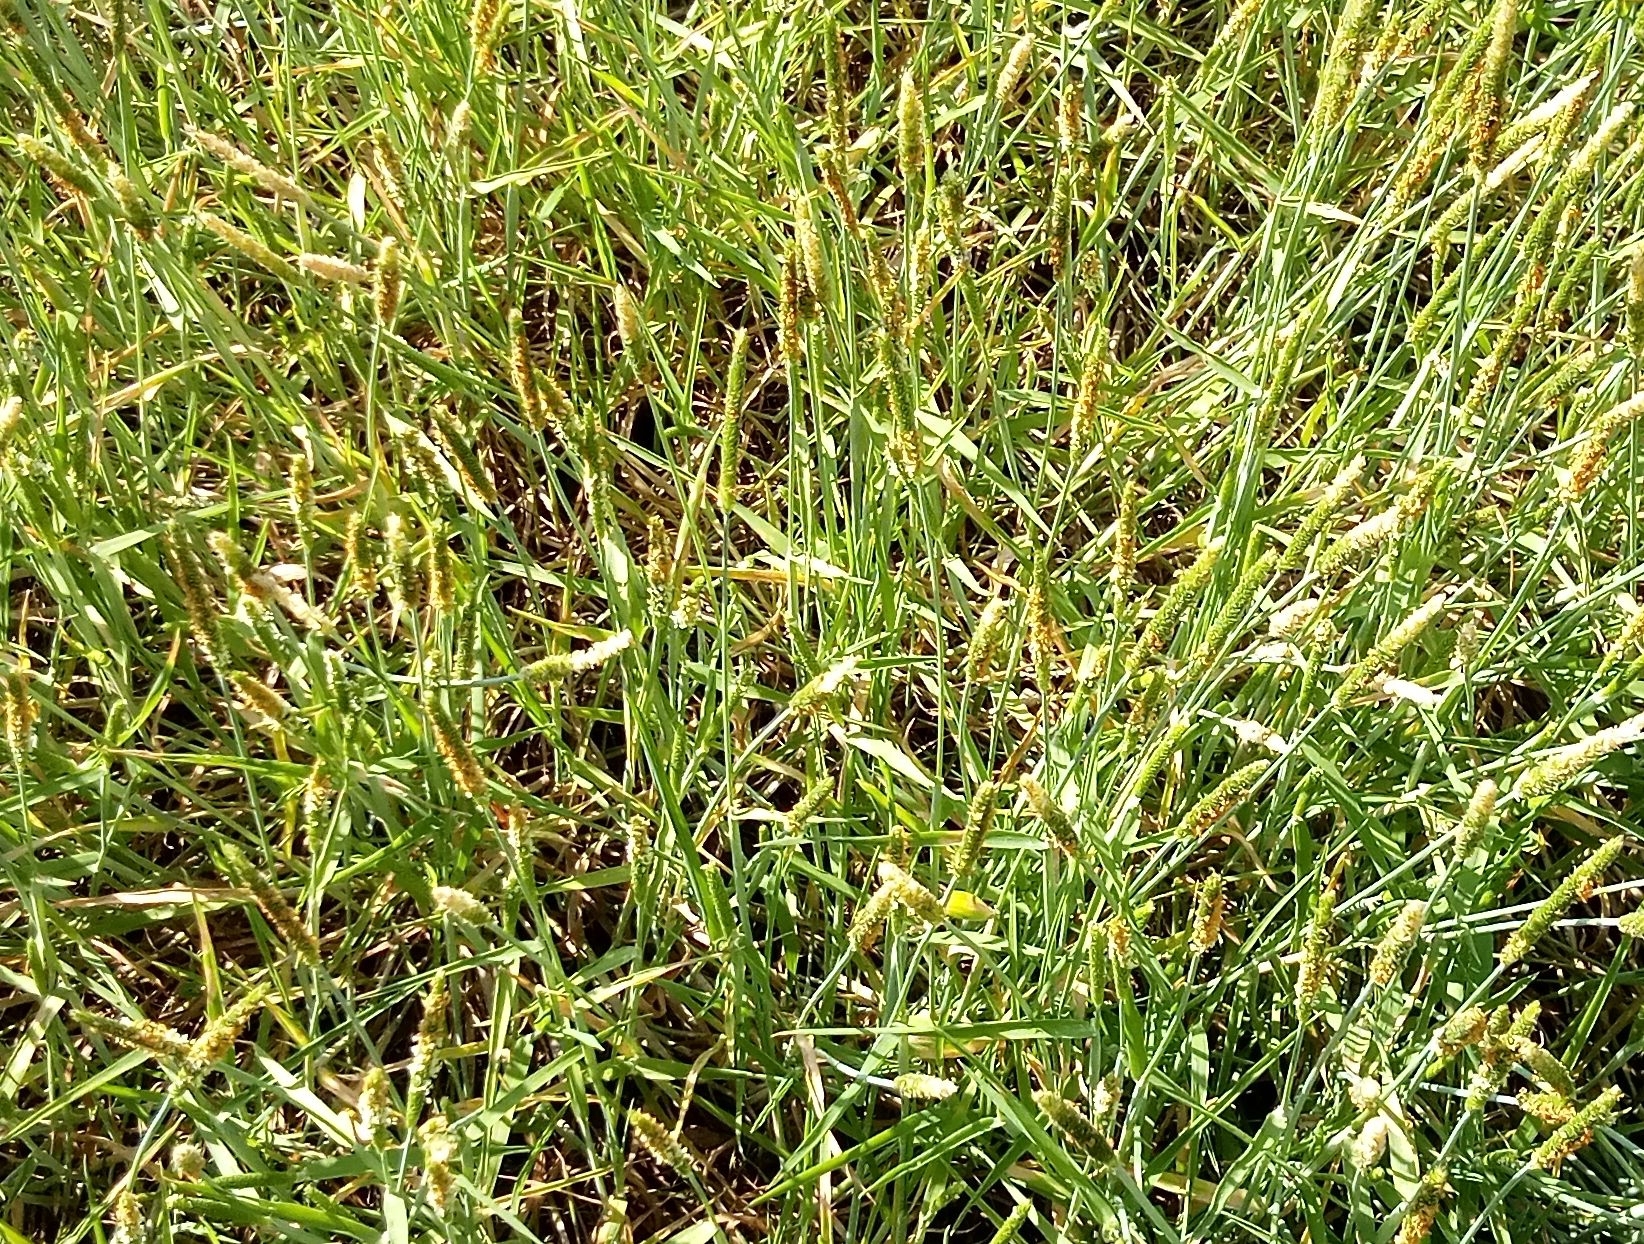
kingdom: Plantae
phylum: Tracheophyta
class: Liliopsida
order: Poales
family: Poaceae
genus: Alopecurus
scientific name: Alopecurus aequalis
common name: Orange foxtail
